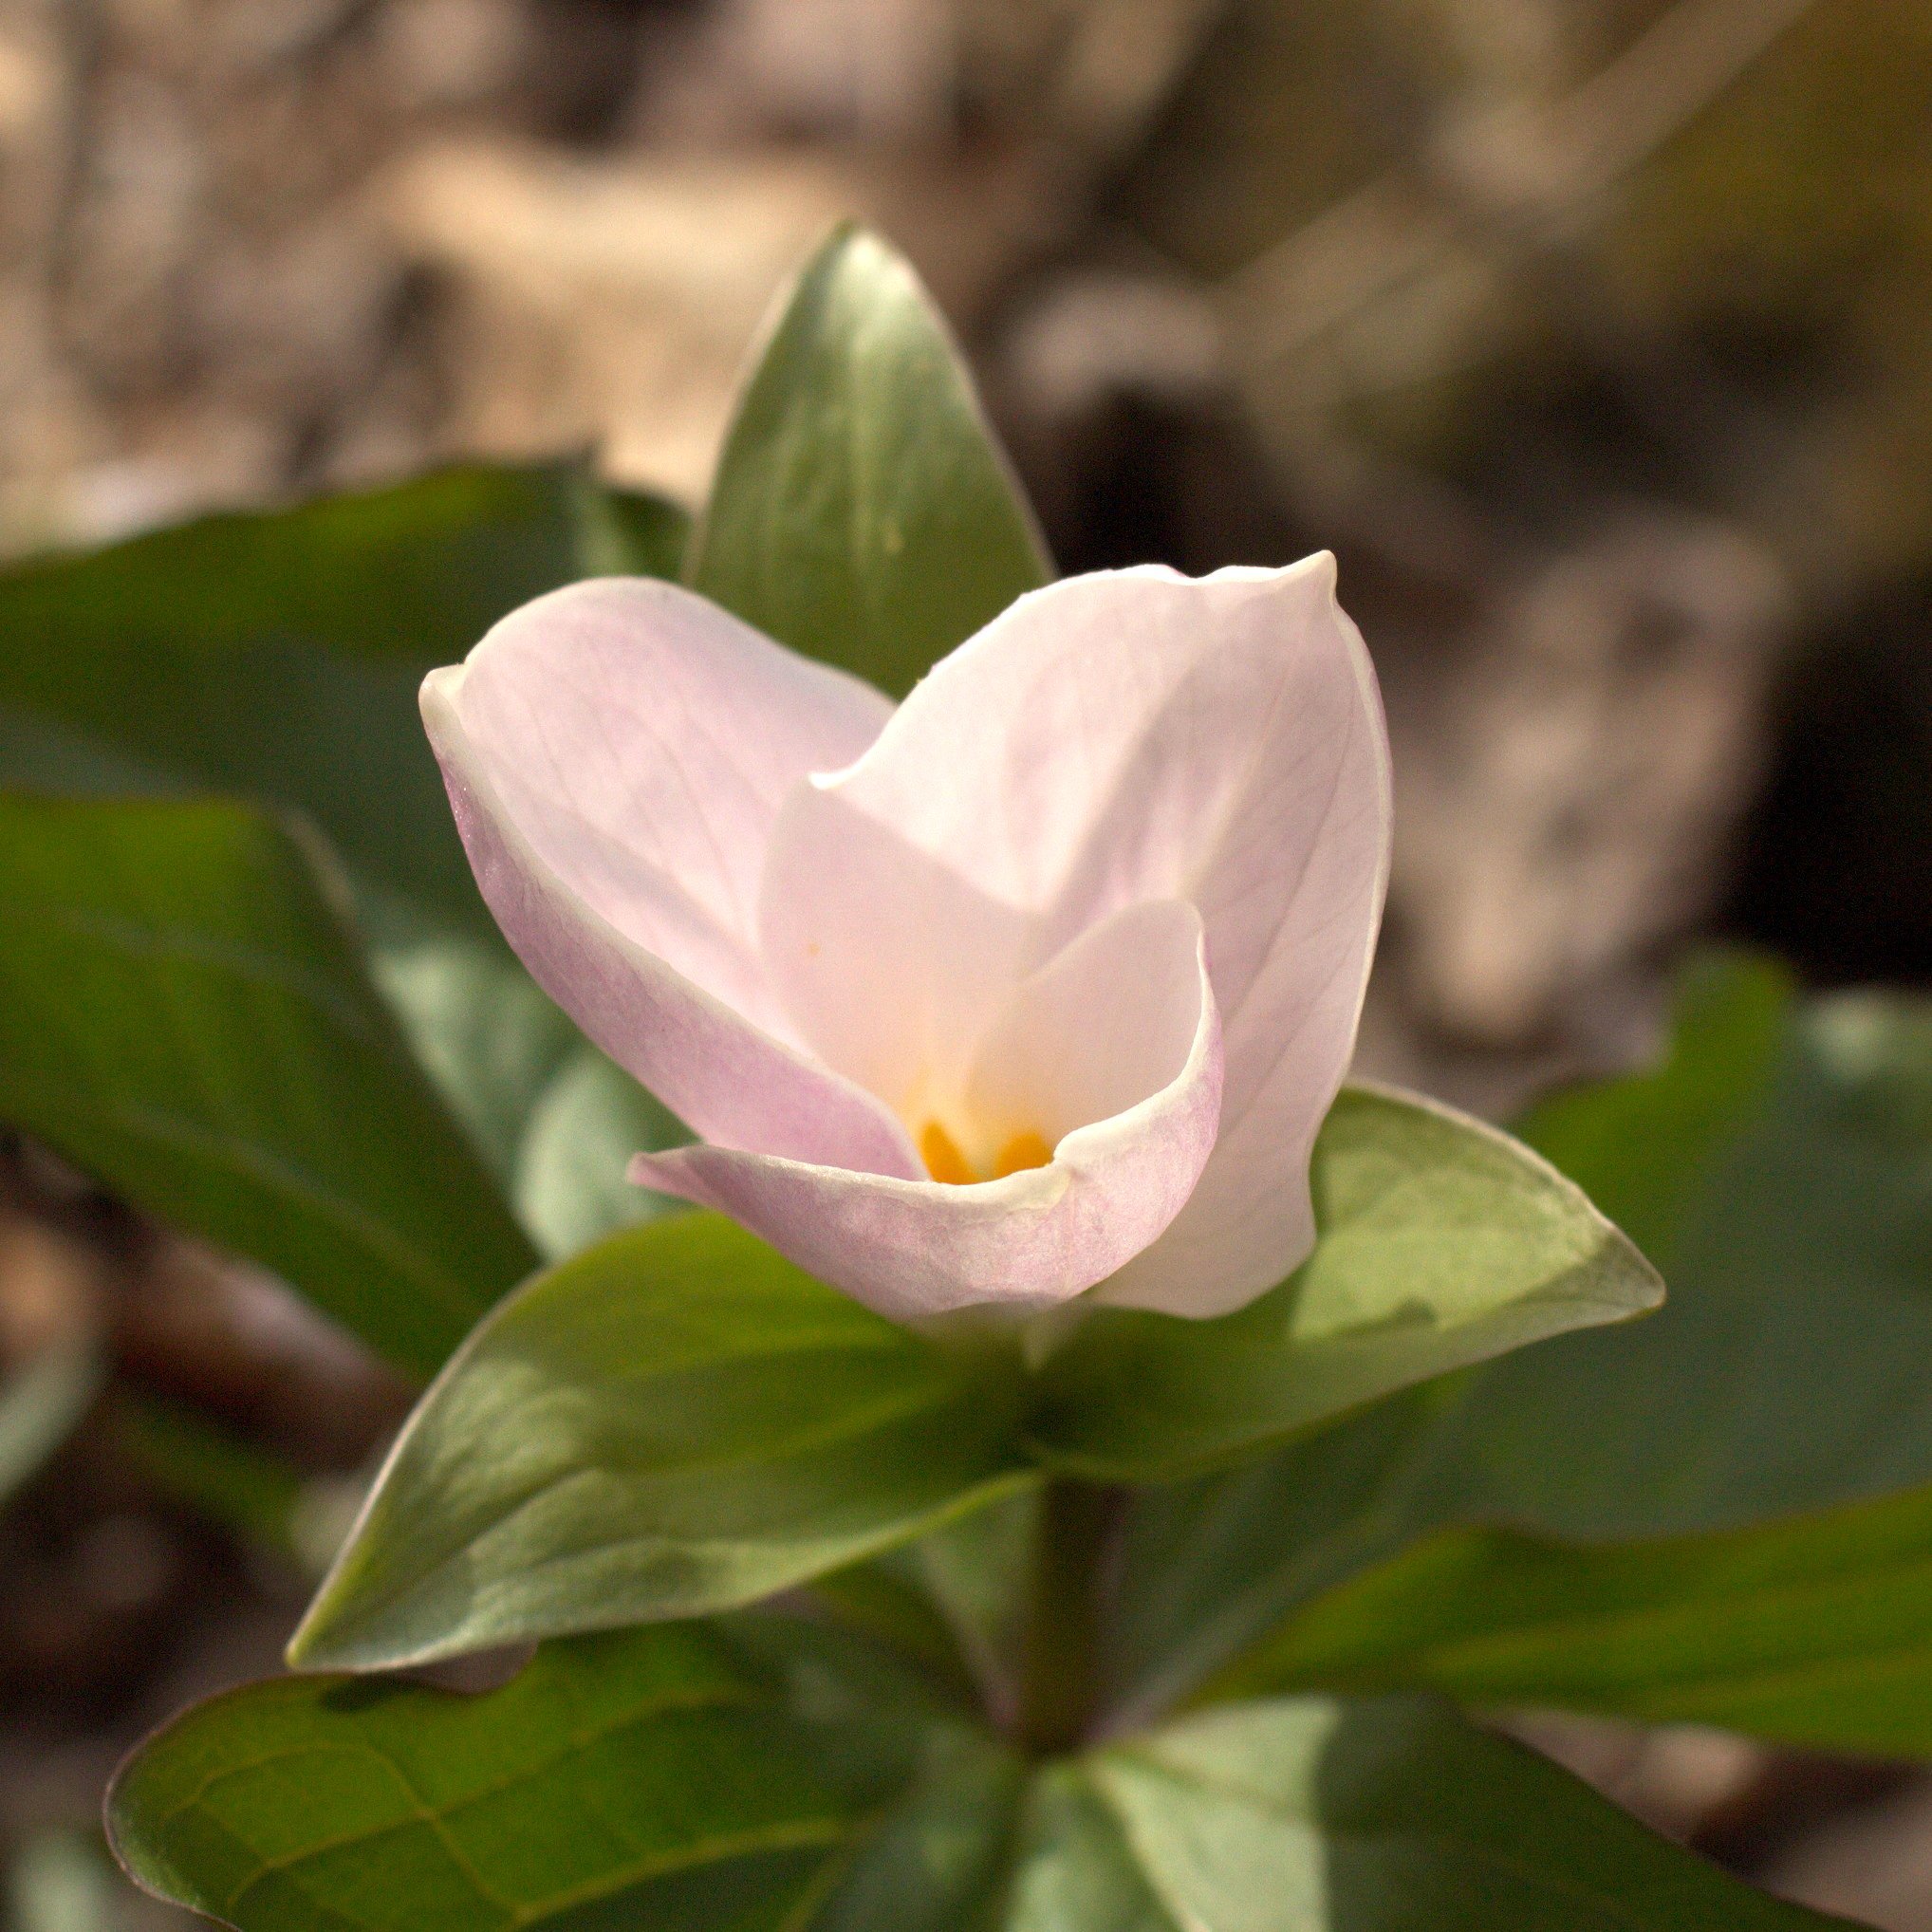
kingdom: Plantae
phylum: Tracheophyta
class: Liliopsida
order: Liliales
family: Melanthiaceae
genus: Trillium
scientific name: Trillium grandiflorum
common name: Great white trillium
